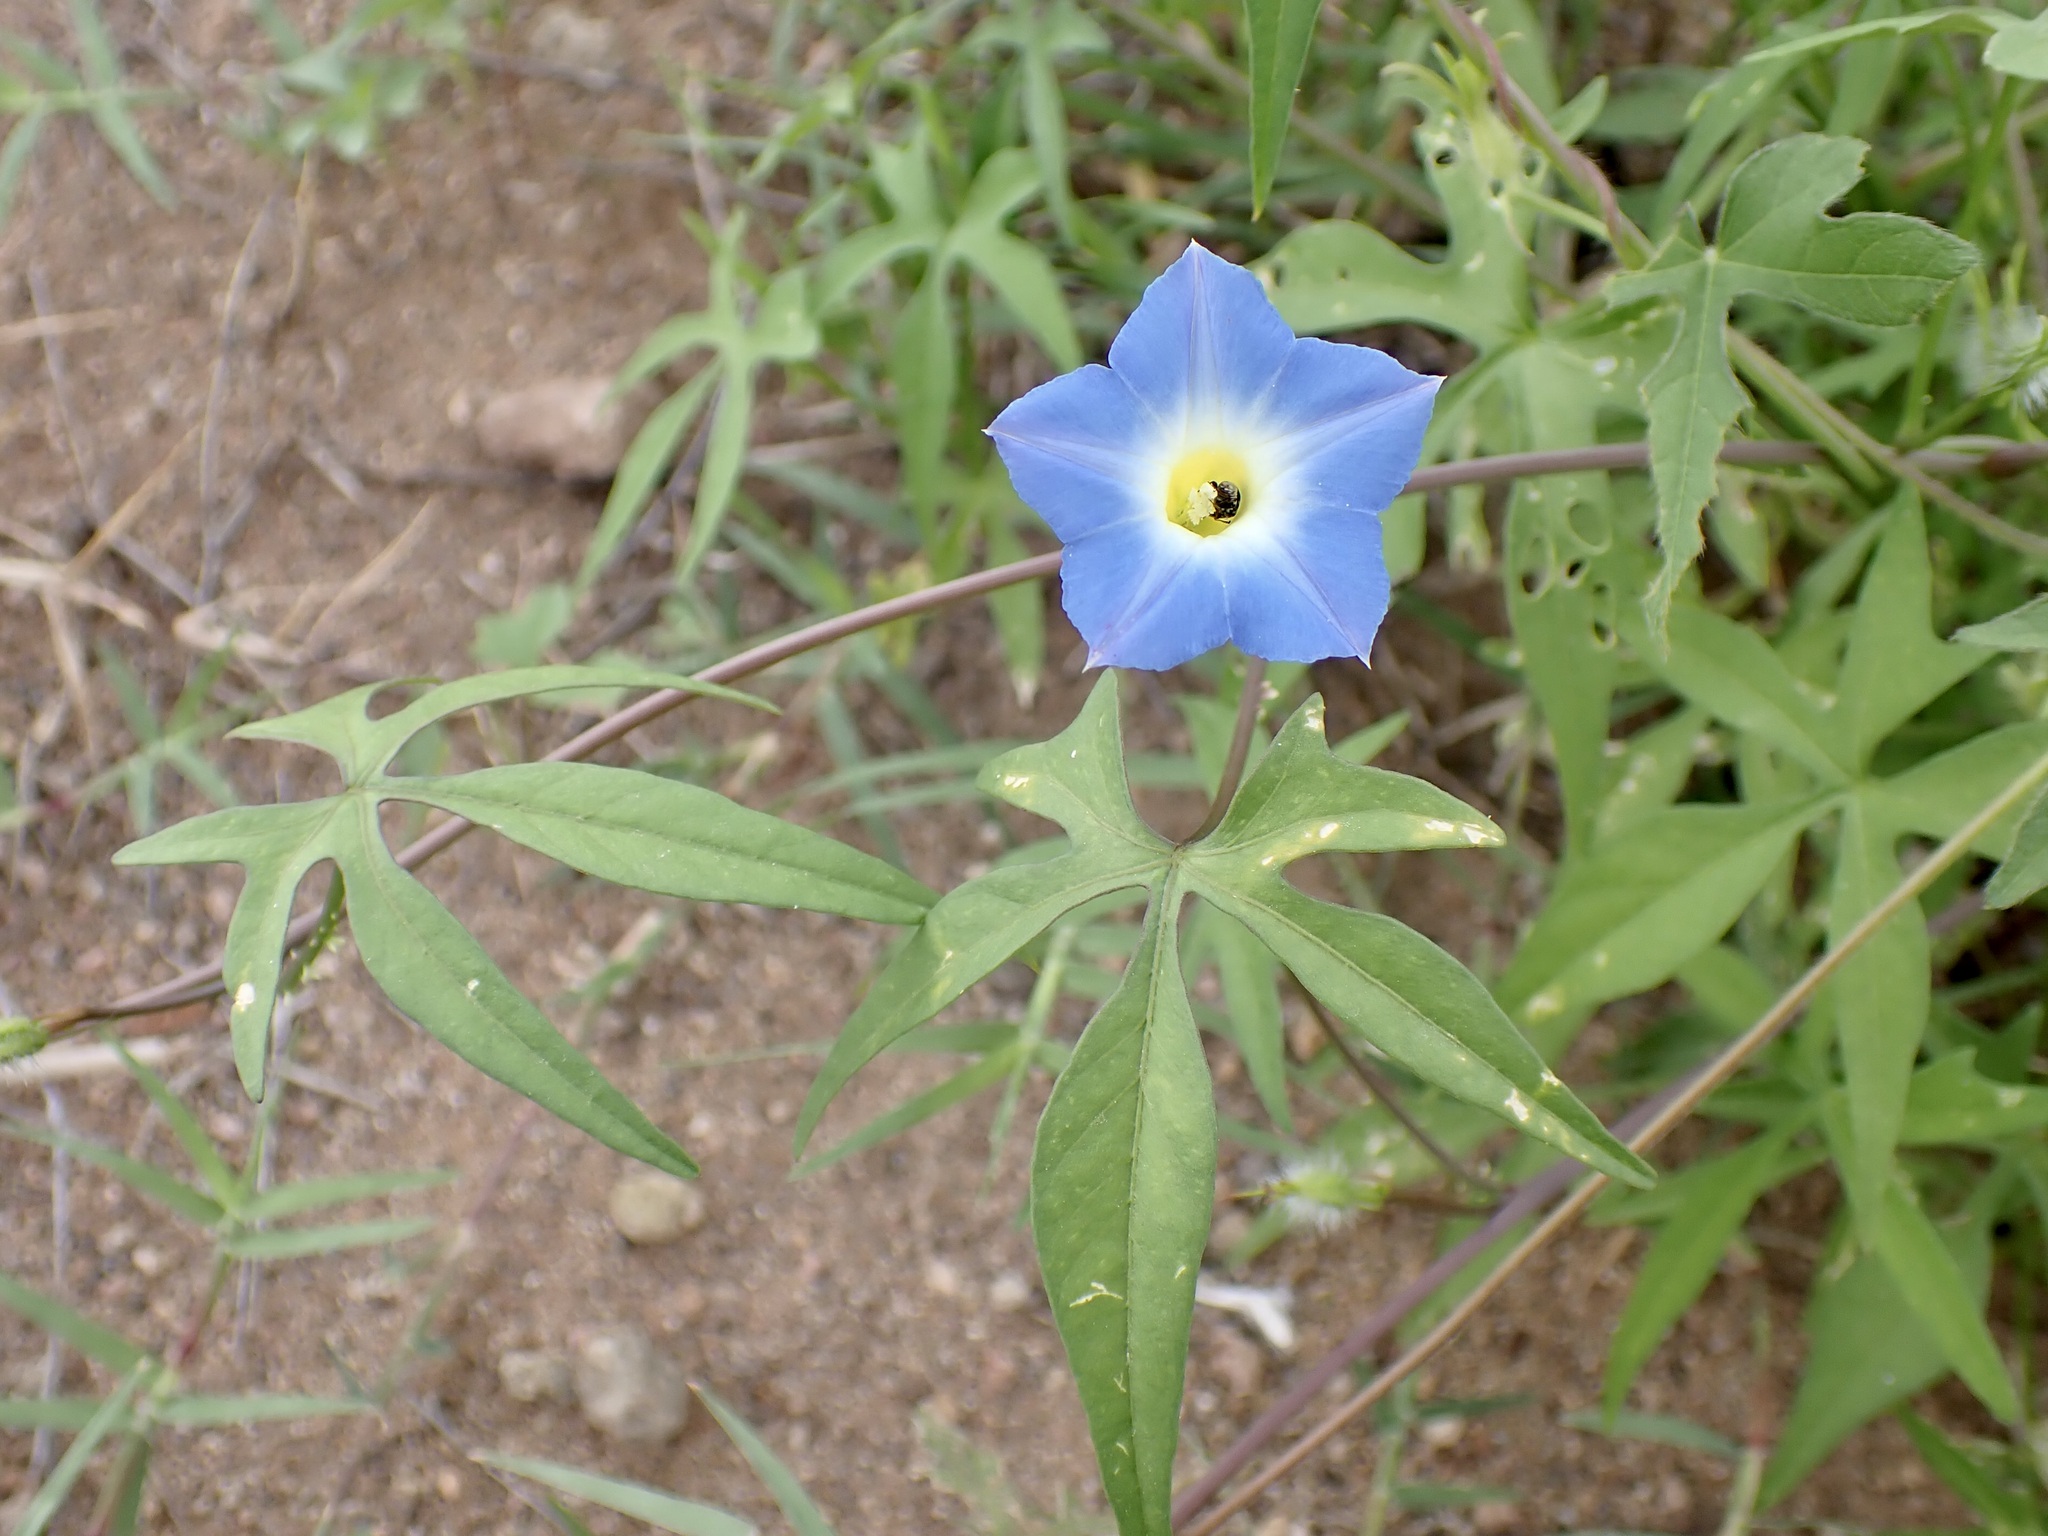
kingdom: Plantae
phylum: Tracheophyta
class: Magnoliopsida
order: Solanales
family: Convolvulaceae
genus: Ipomoea
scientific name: Ipomoea barbatisepala
